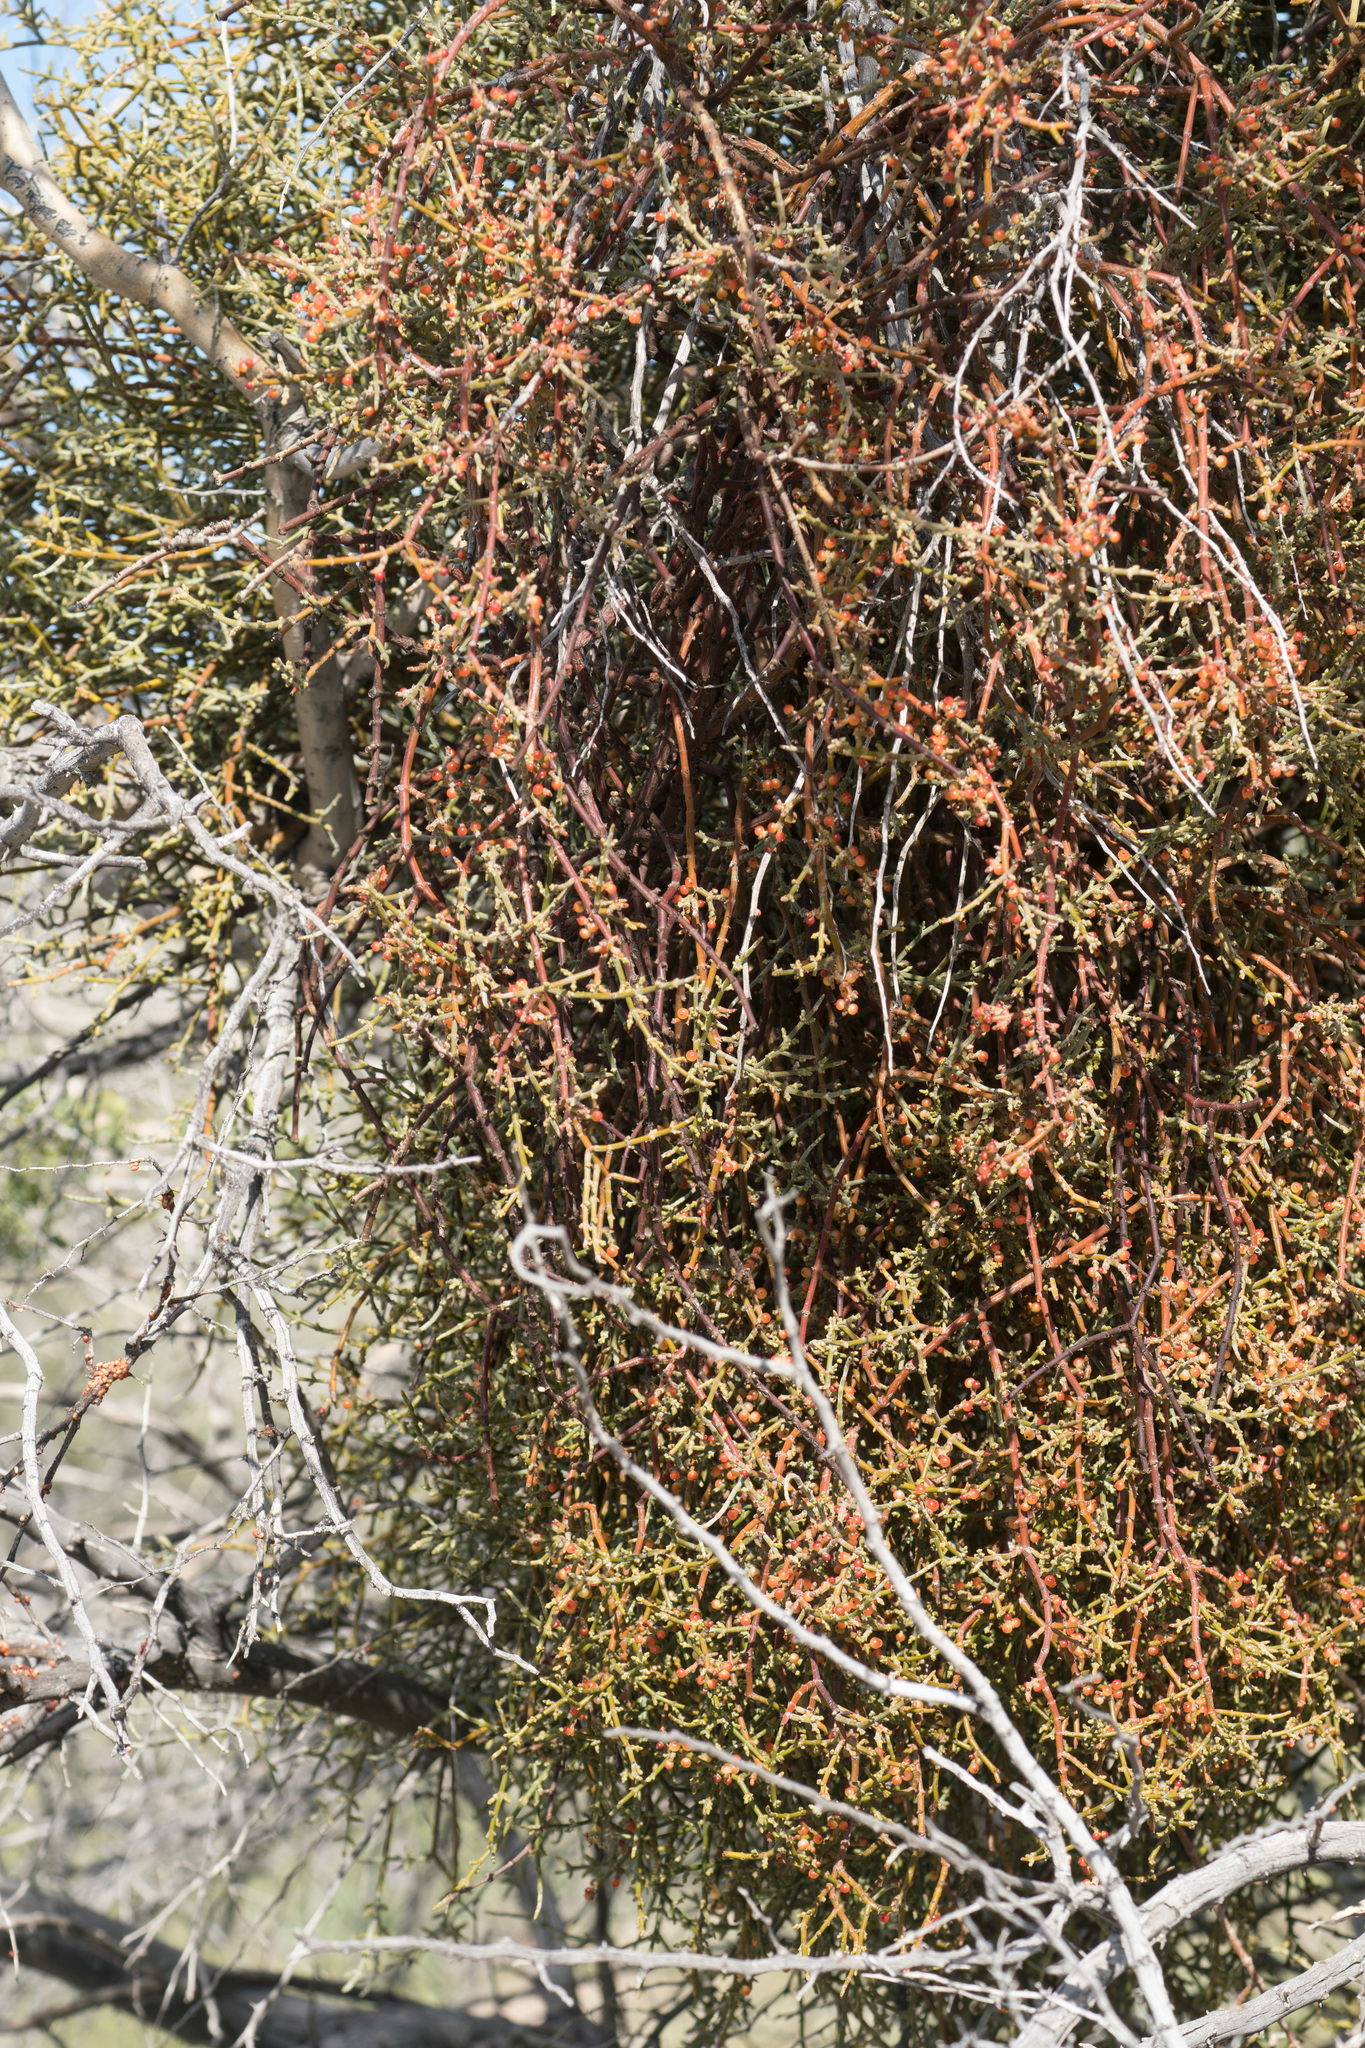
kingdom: Plantae
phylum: Tracheophyta
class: Magnoliopsida
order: Santalales
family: Viscaceae
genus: Phoradendron
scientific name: Phoradendron californicum
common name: Acacia mistletoe
